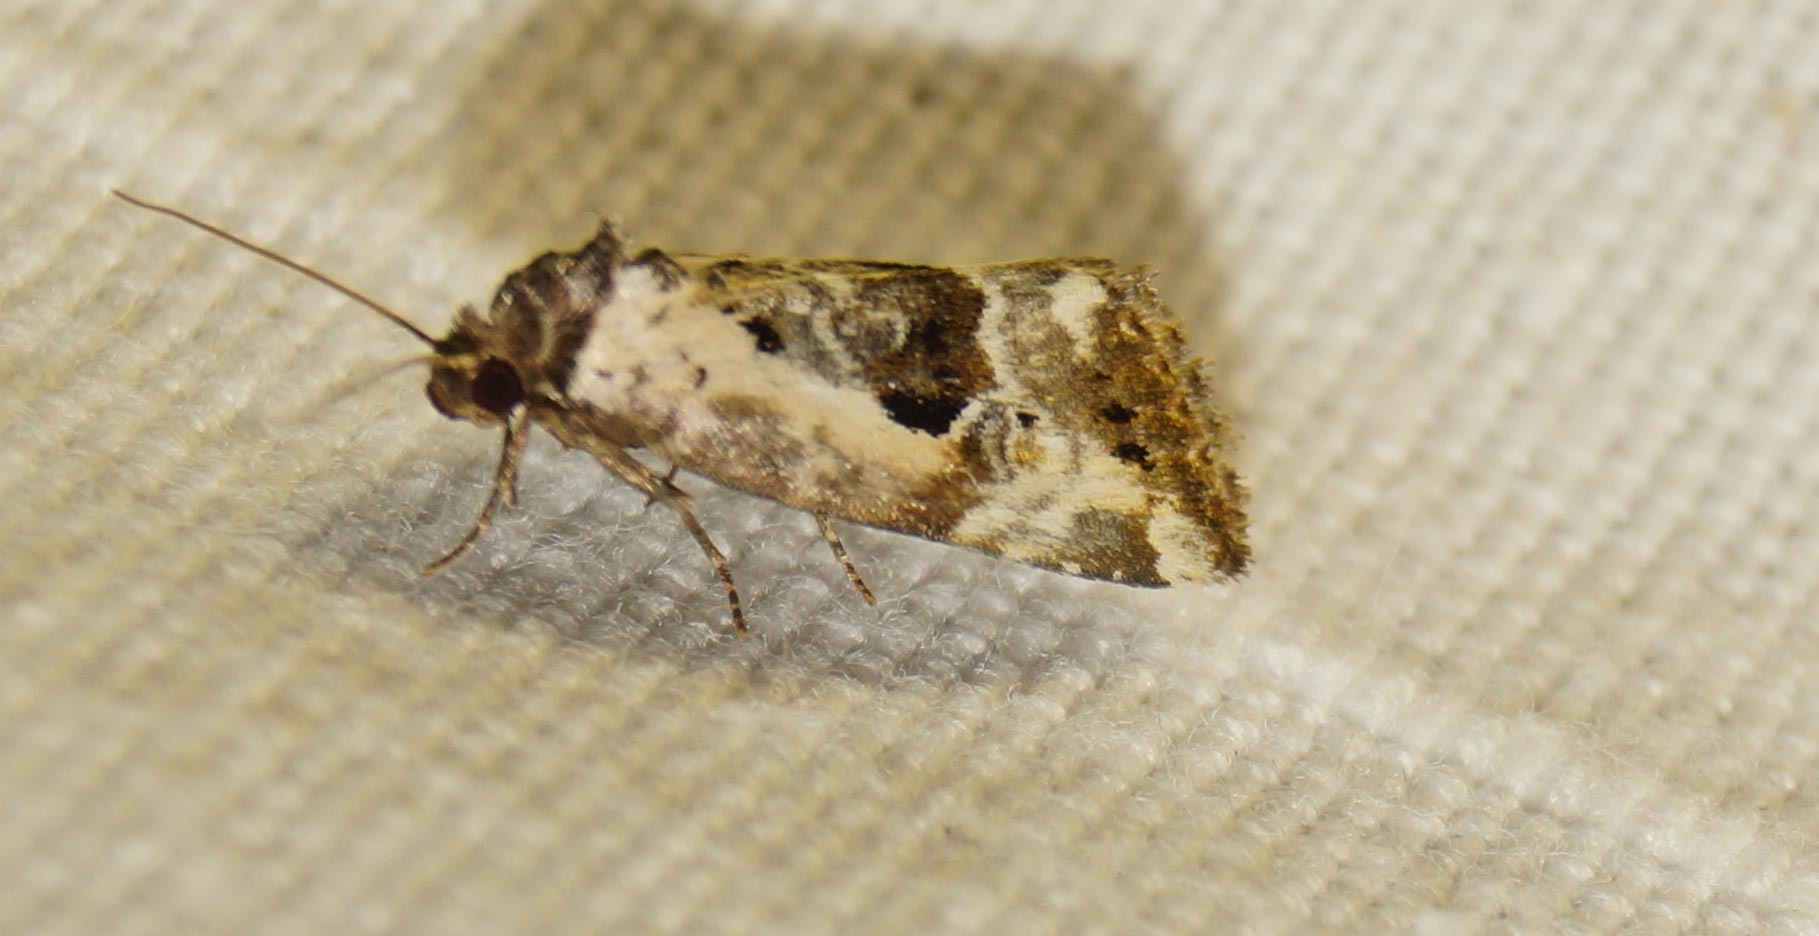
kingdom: Animalia
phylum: Arthropoda
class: Insecta
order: Lepidoptera
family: Noctuidae
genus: Elaphria
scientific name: Elaphria venustula
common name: Rosy marbled
